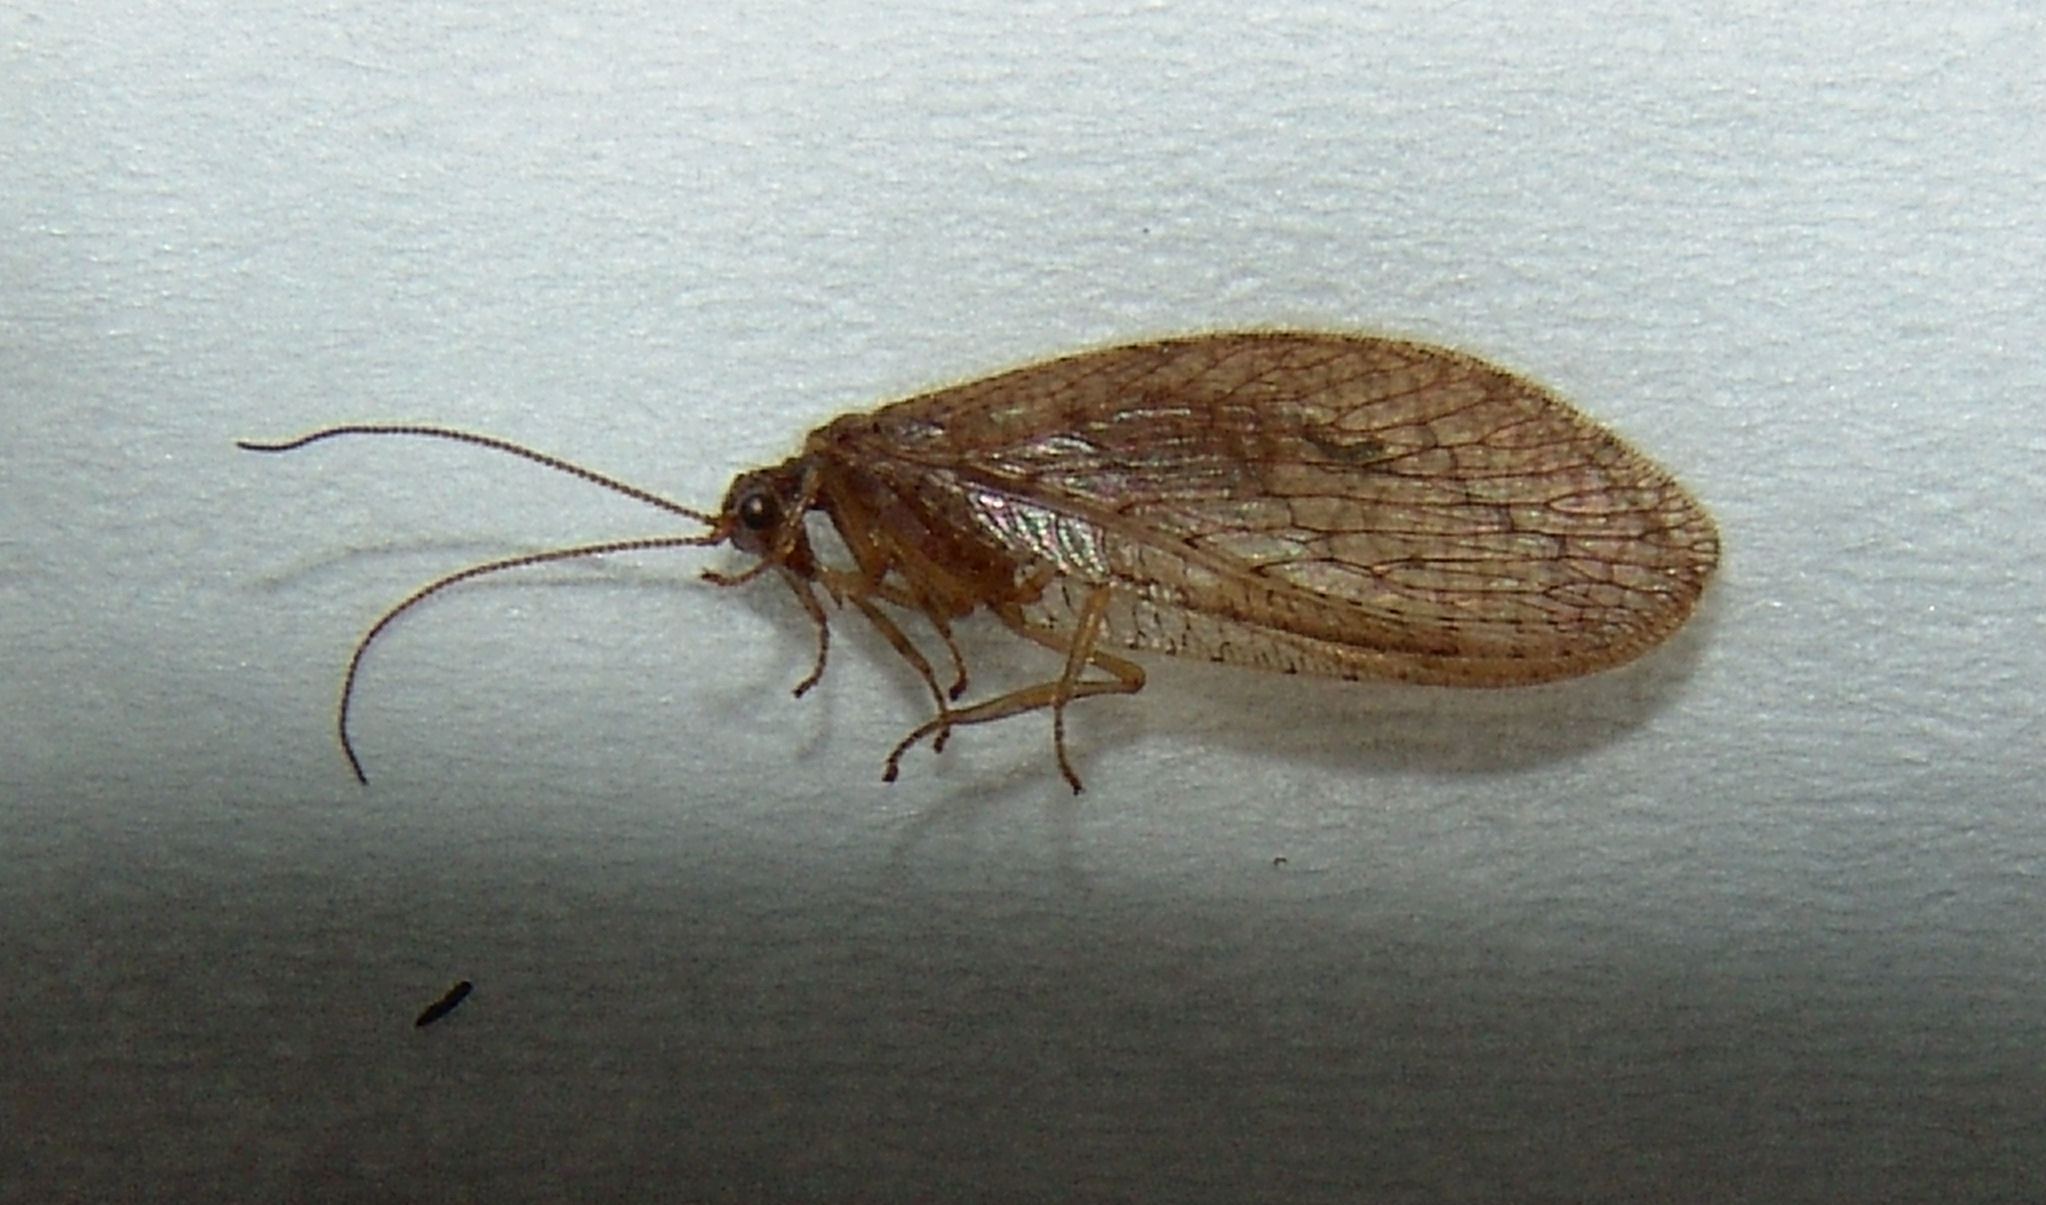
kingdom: Animalia
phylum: Arthropoda
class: Insecta
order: Neuroptera
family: Hemerobiidae
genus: Micromus
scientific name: Micromus posticus
